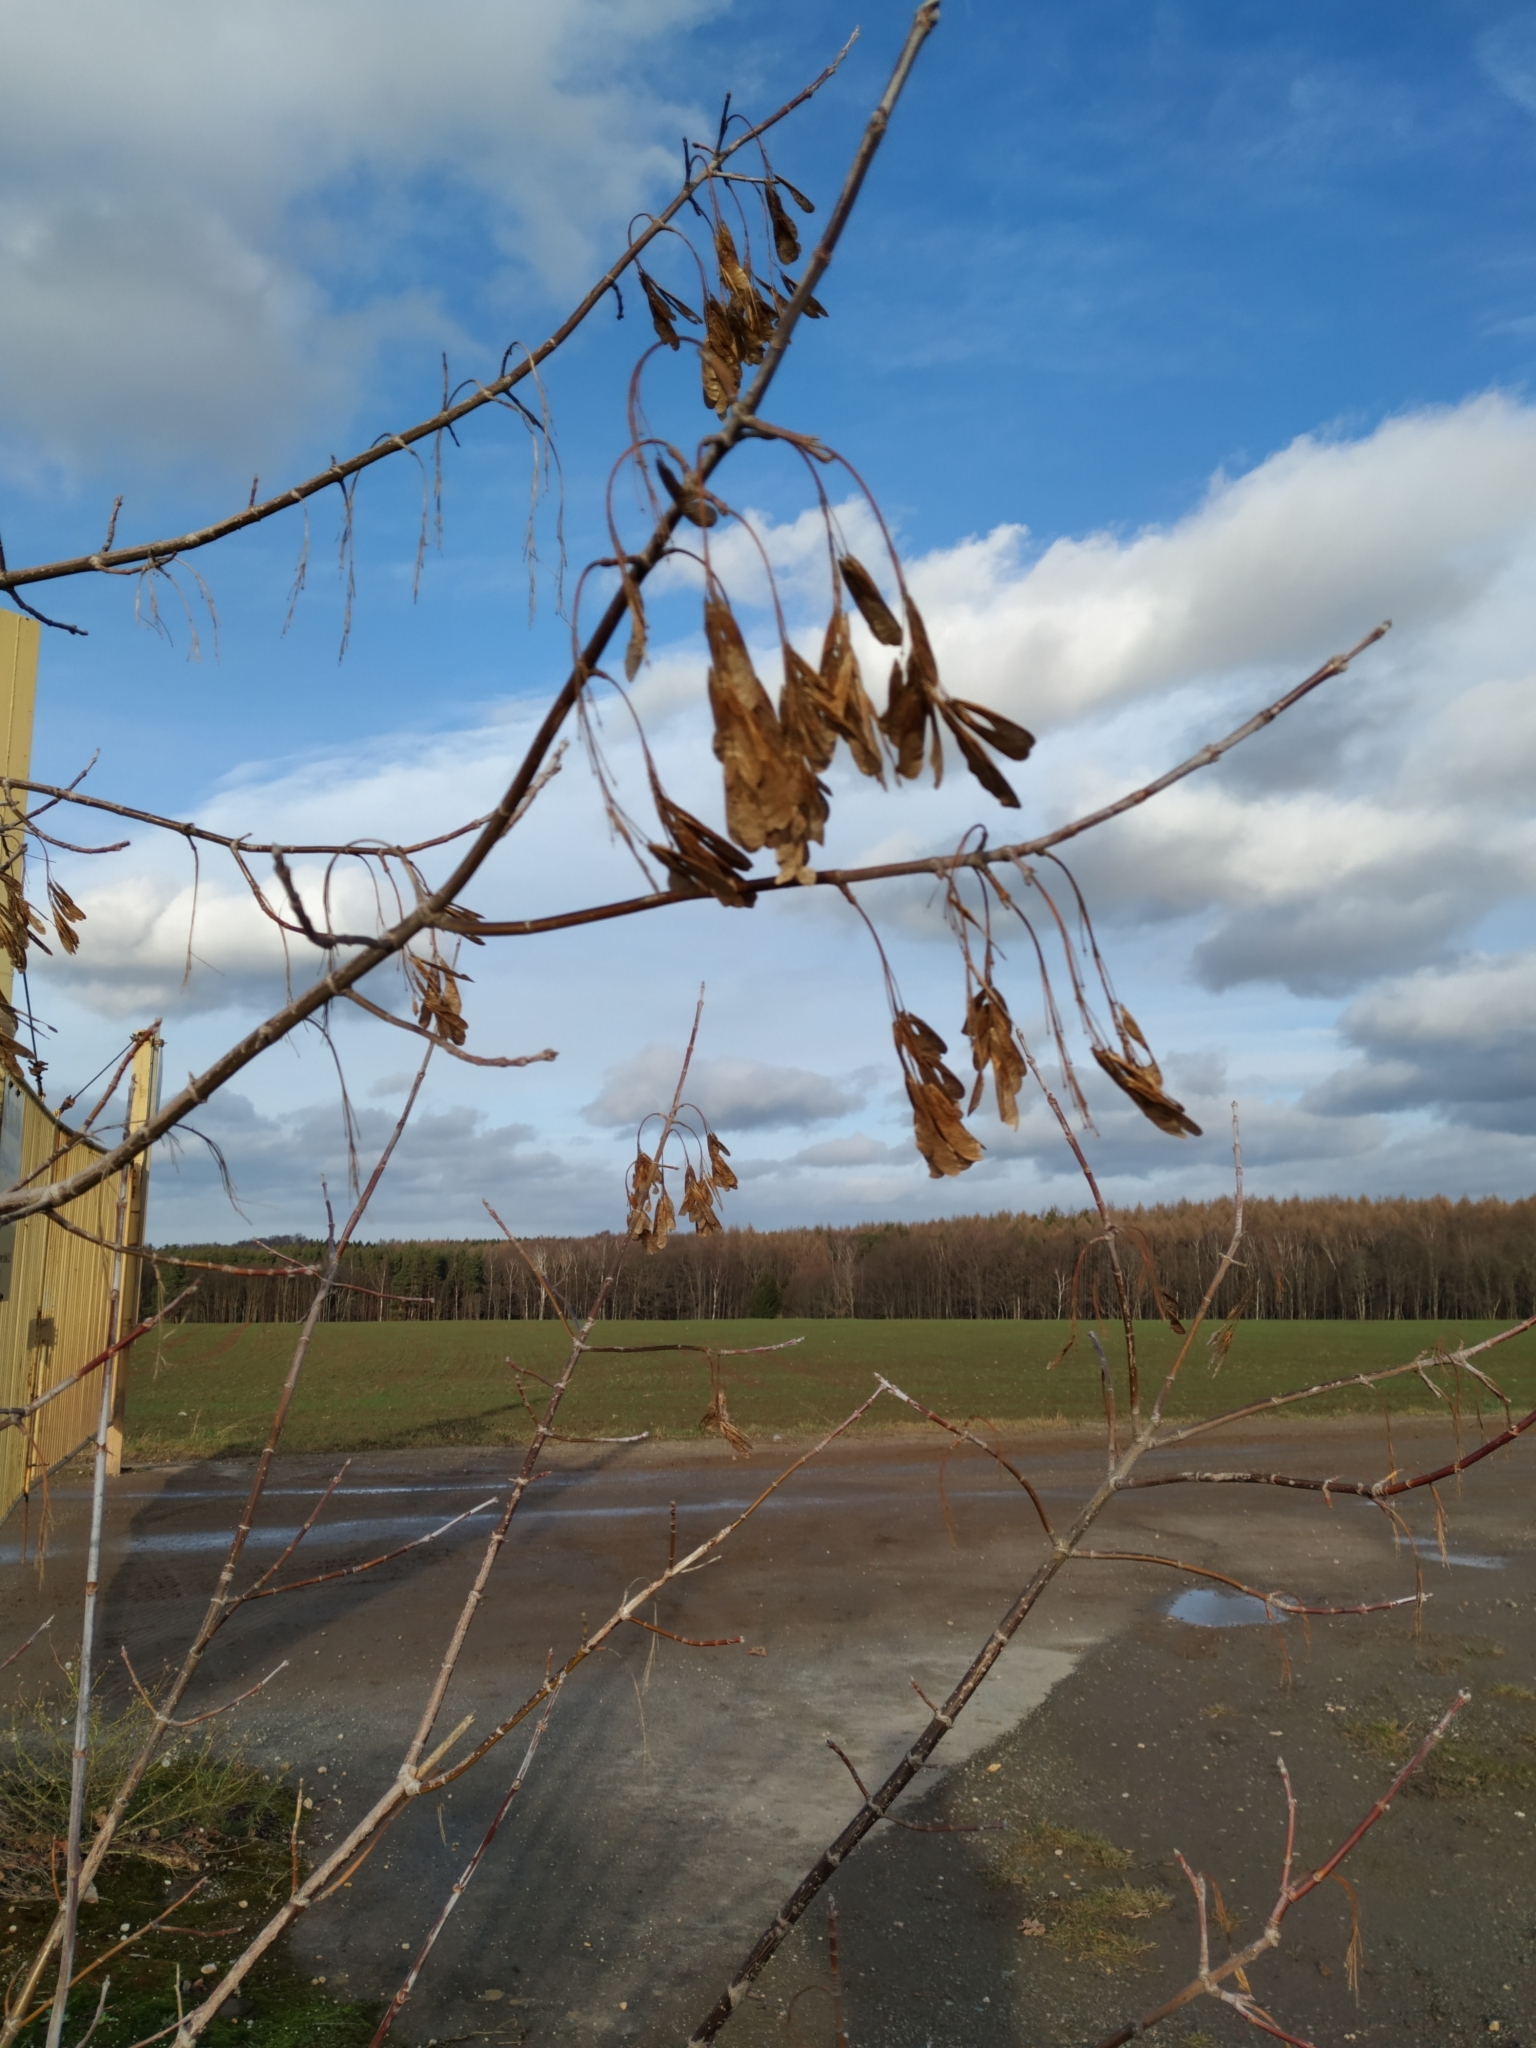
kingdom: Plantae
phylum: Tracheophyta
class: Magnoliopsida
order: Sapindales
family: Sapindaceae
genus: Acer
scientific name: Acer negundo
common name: Ashleaf maple
